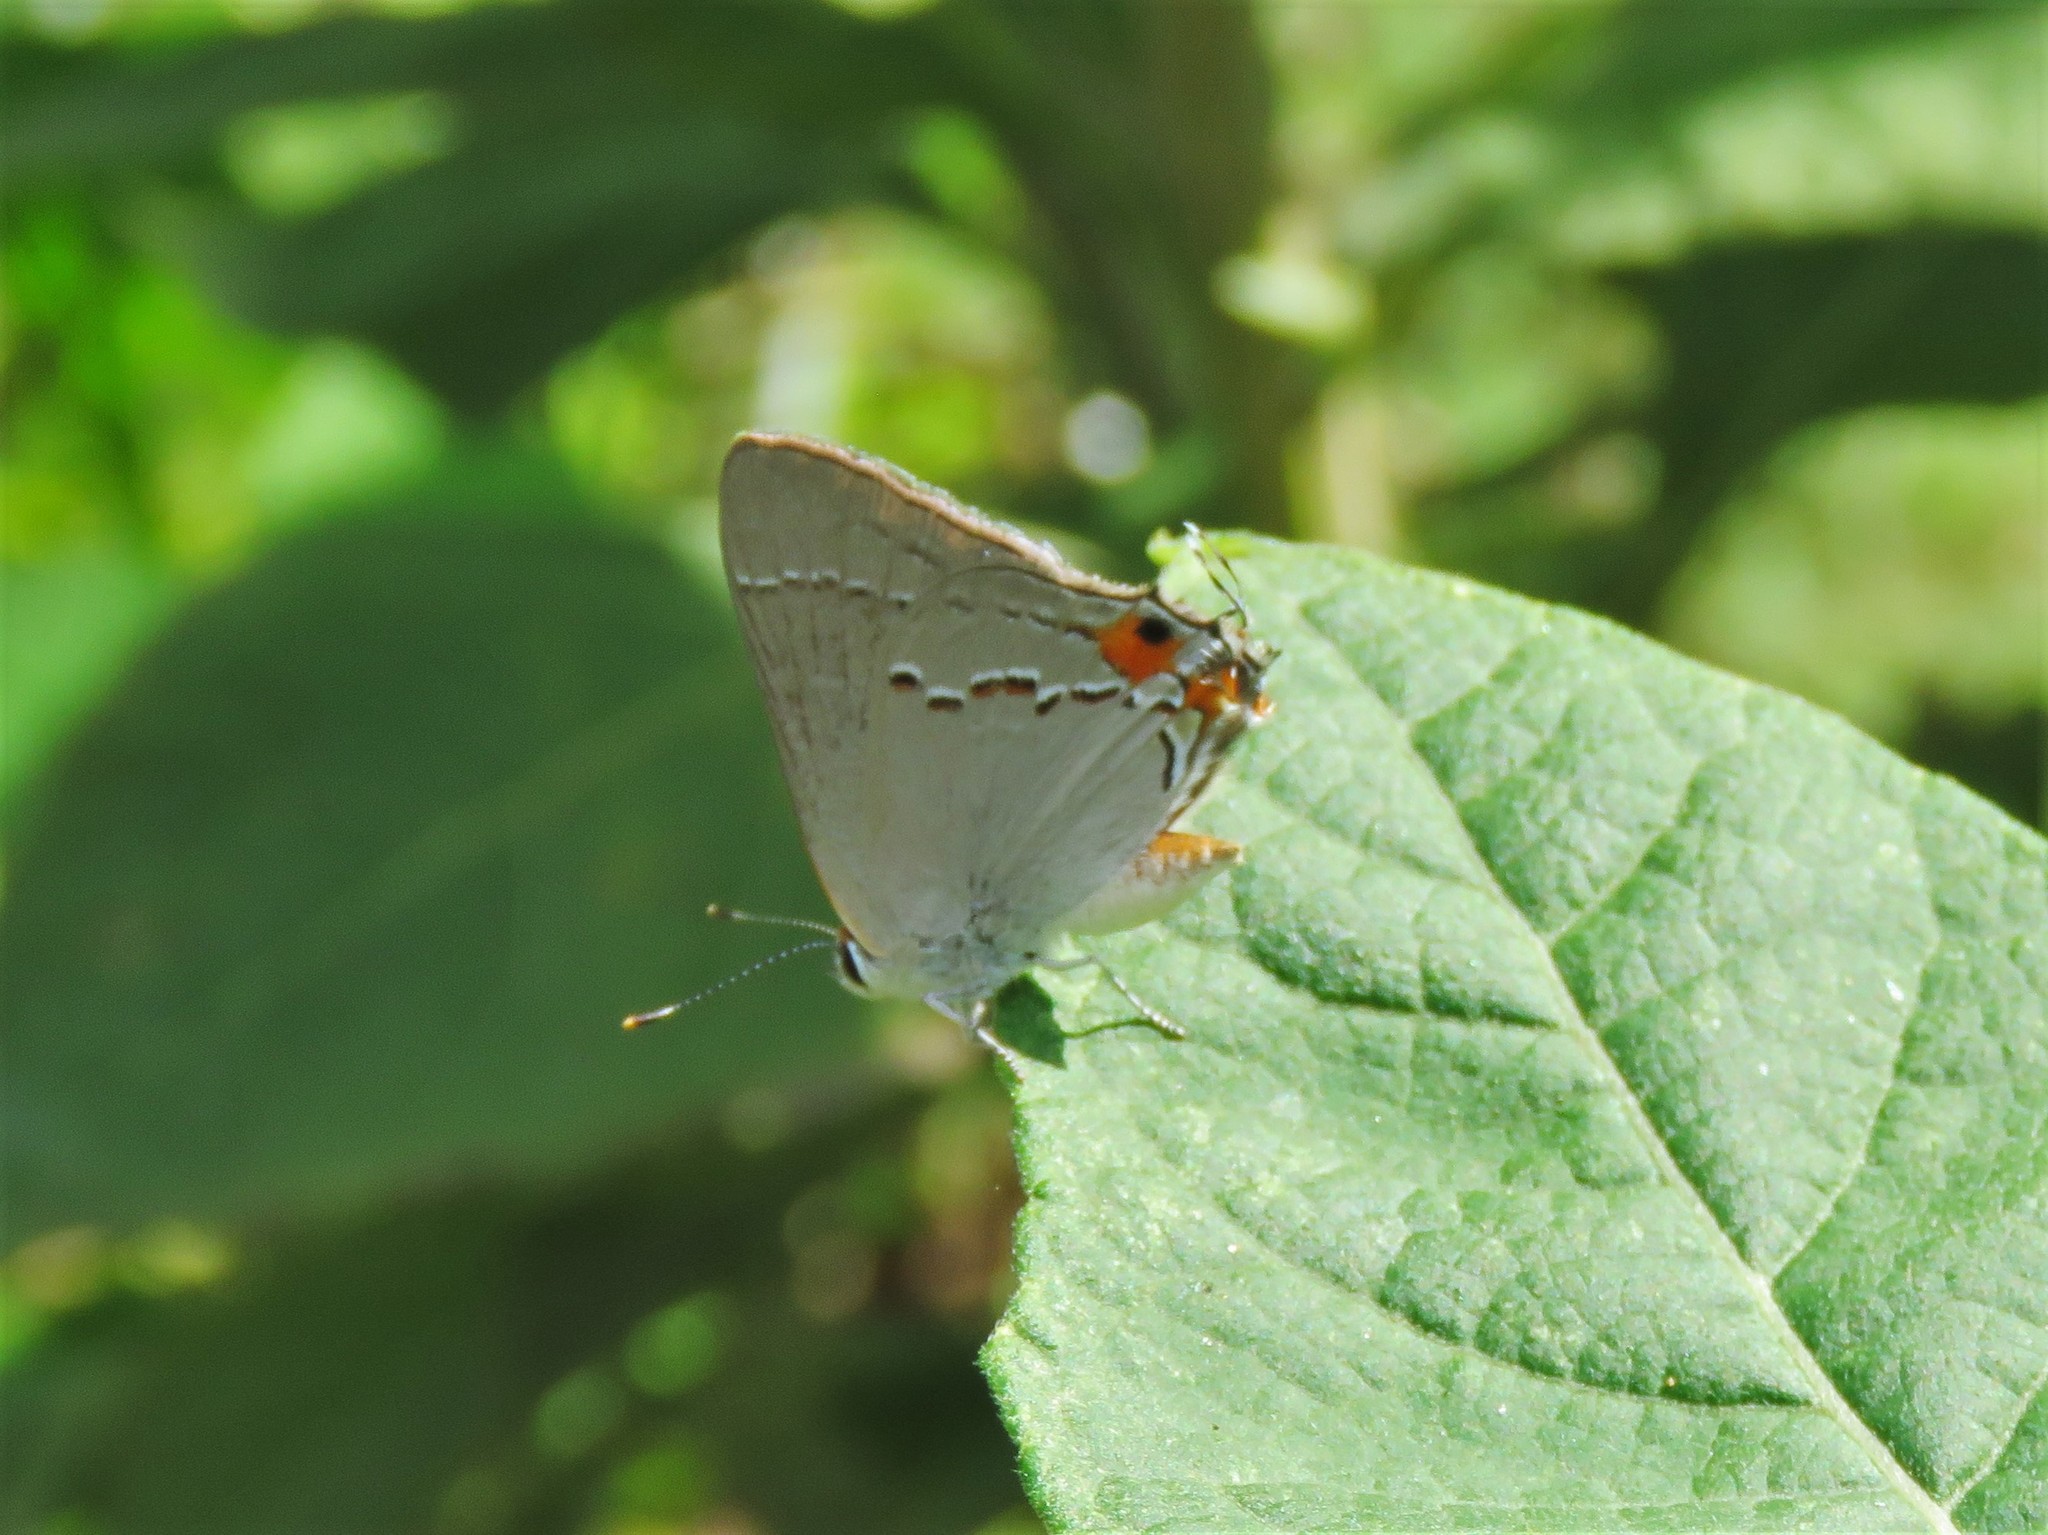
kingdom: Animalia
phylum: Arthropoda
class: Insecta
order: Lepidoptera
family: Lycaenidae
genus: Strymon
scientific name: Strymon melinus
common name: Gray hairstreak
